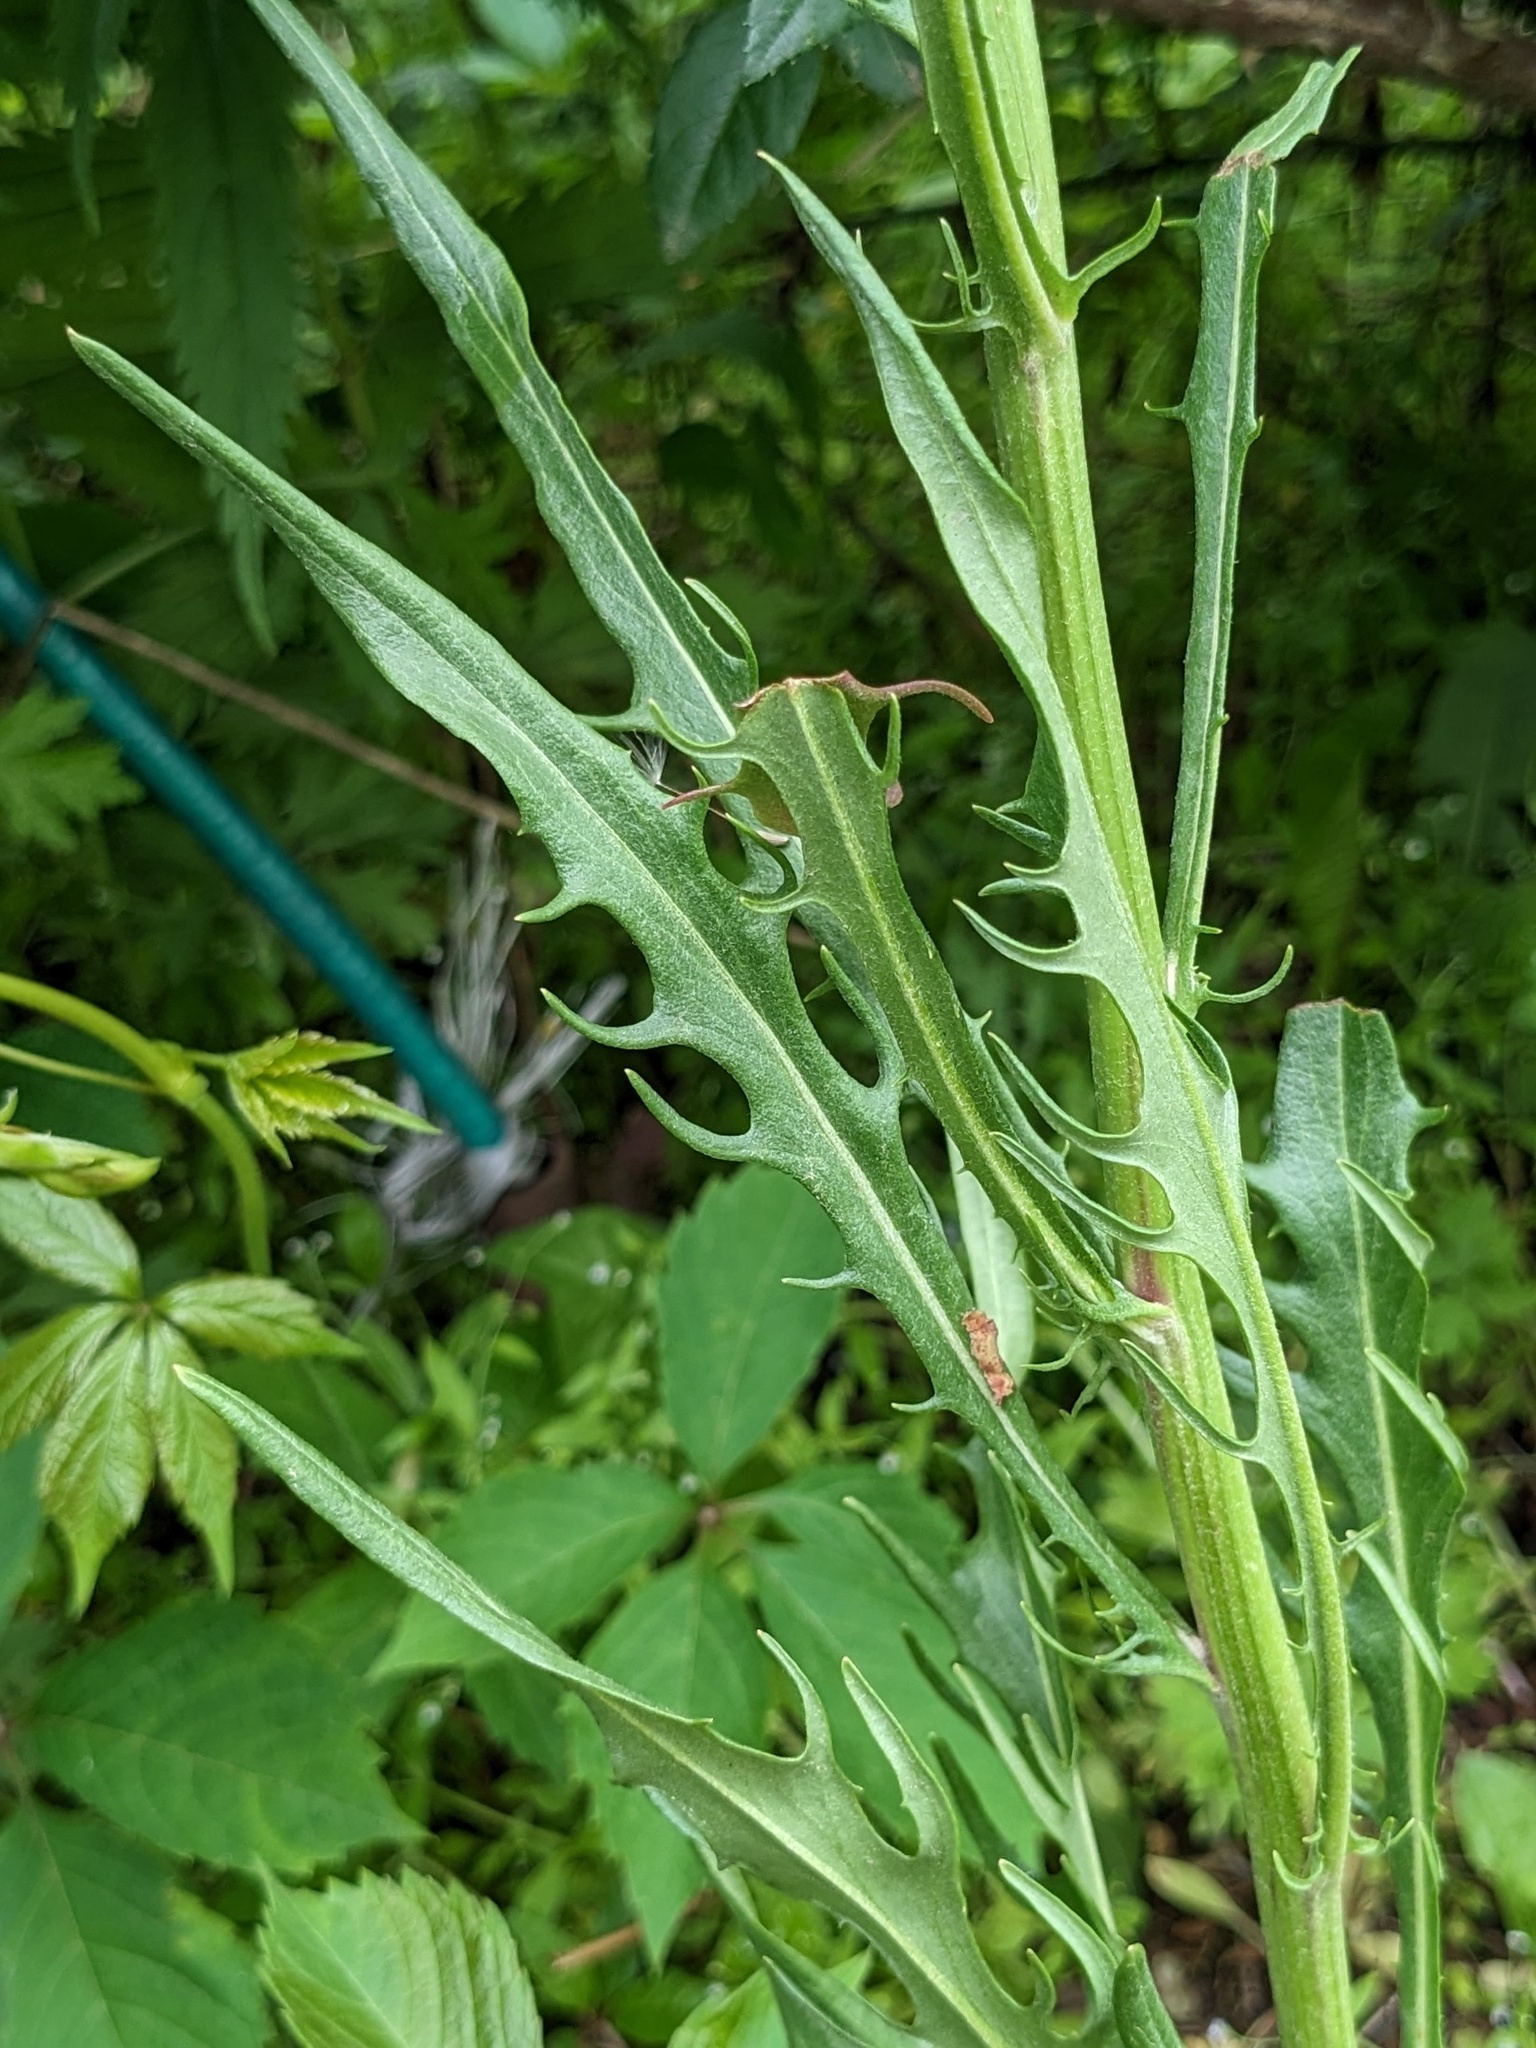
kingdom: Plantae
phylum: Tracheophyta
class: Magnoliopsida
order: Asterales
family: Asteraceae
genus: Crepis
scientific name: Crepis tectorum
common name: Narrow-leaved hawk's-beard
